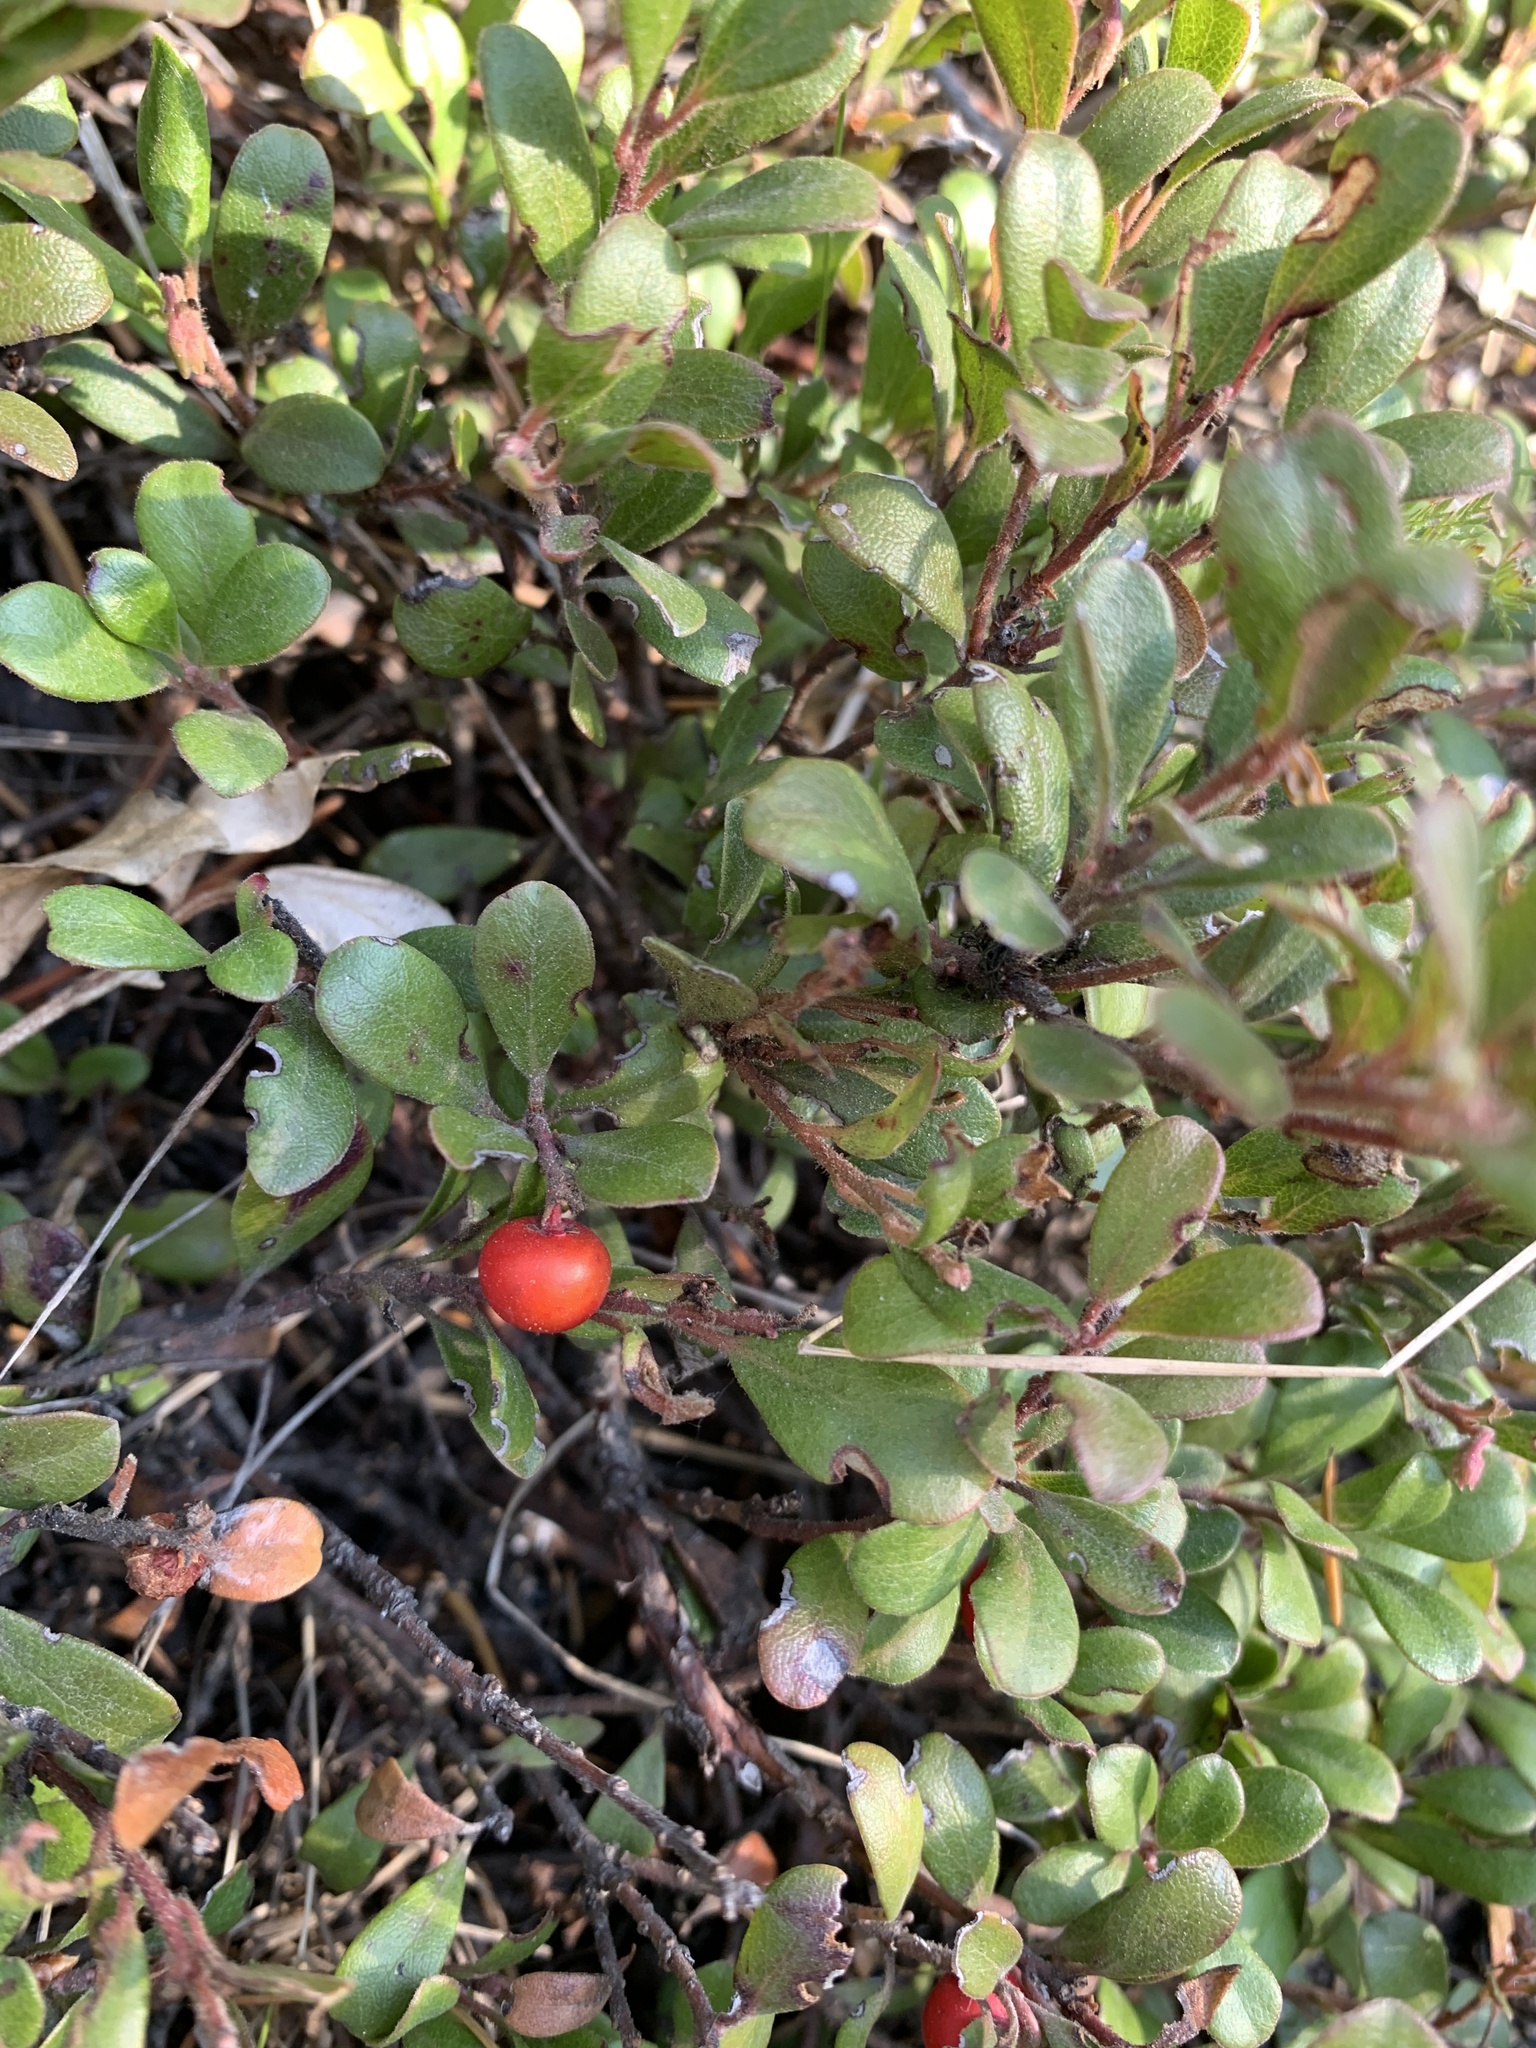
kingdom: Plantae
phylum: Tracheophyta
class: Magnoliopsida
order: Ericales
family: Ericaceae
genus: Arctostaphylos
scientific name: Arctostaphylos uva-ursi
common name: Bearberry
